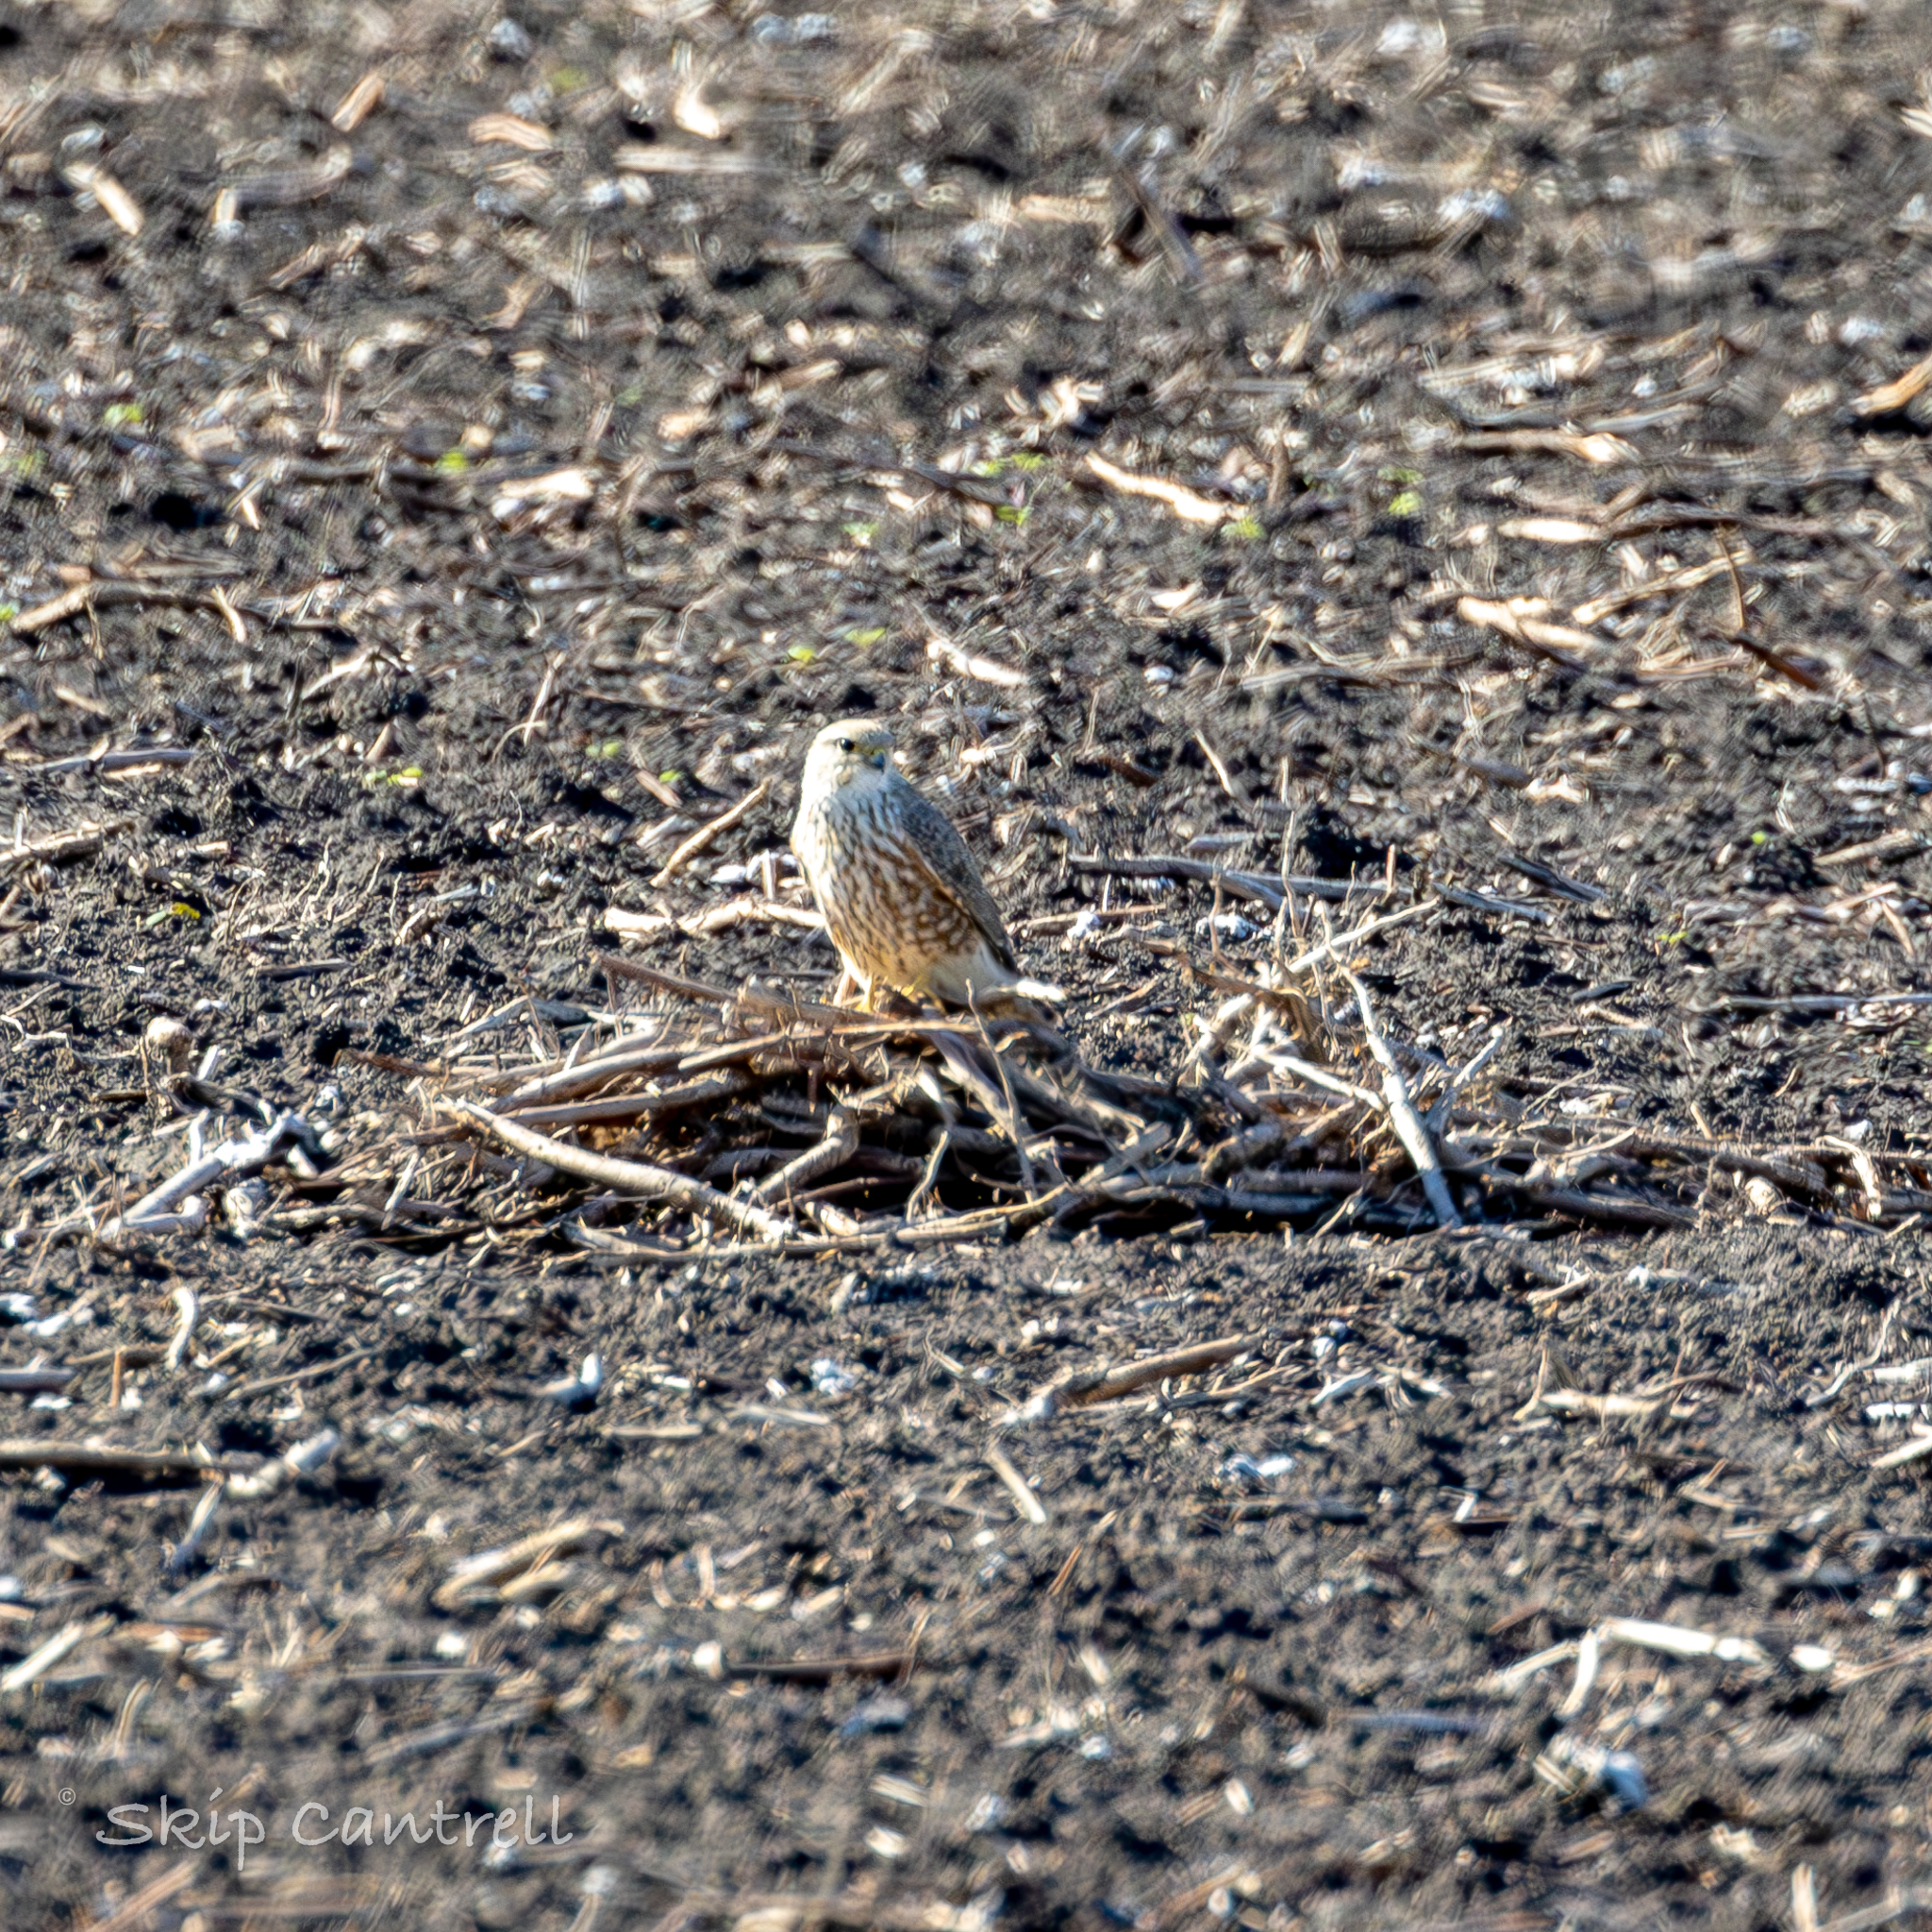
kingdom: Animalia
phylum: Chordata
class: Aves
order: Falconiformes
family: Falconidae
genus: Falco
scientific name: Falco columbarius
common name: Merlin
